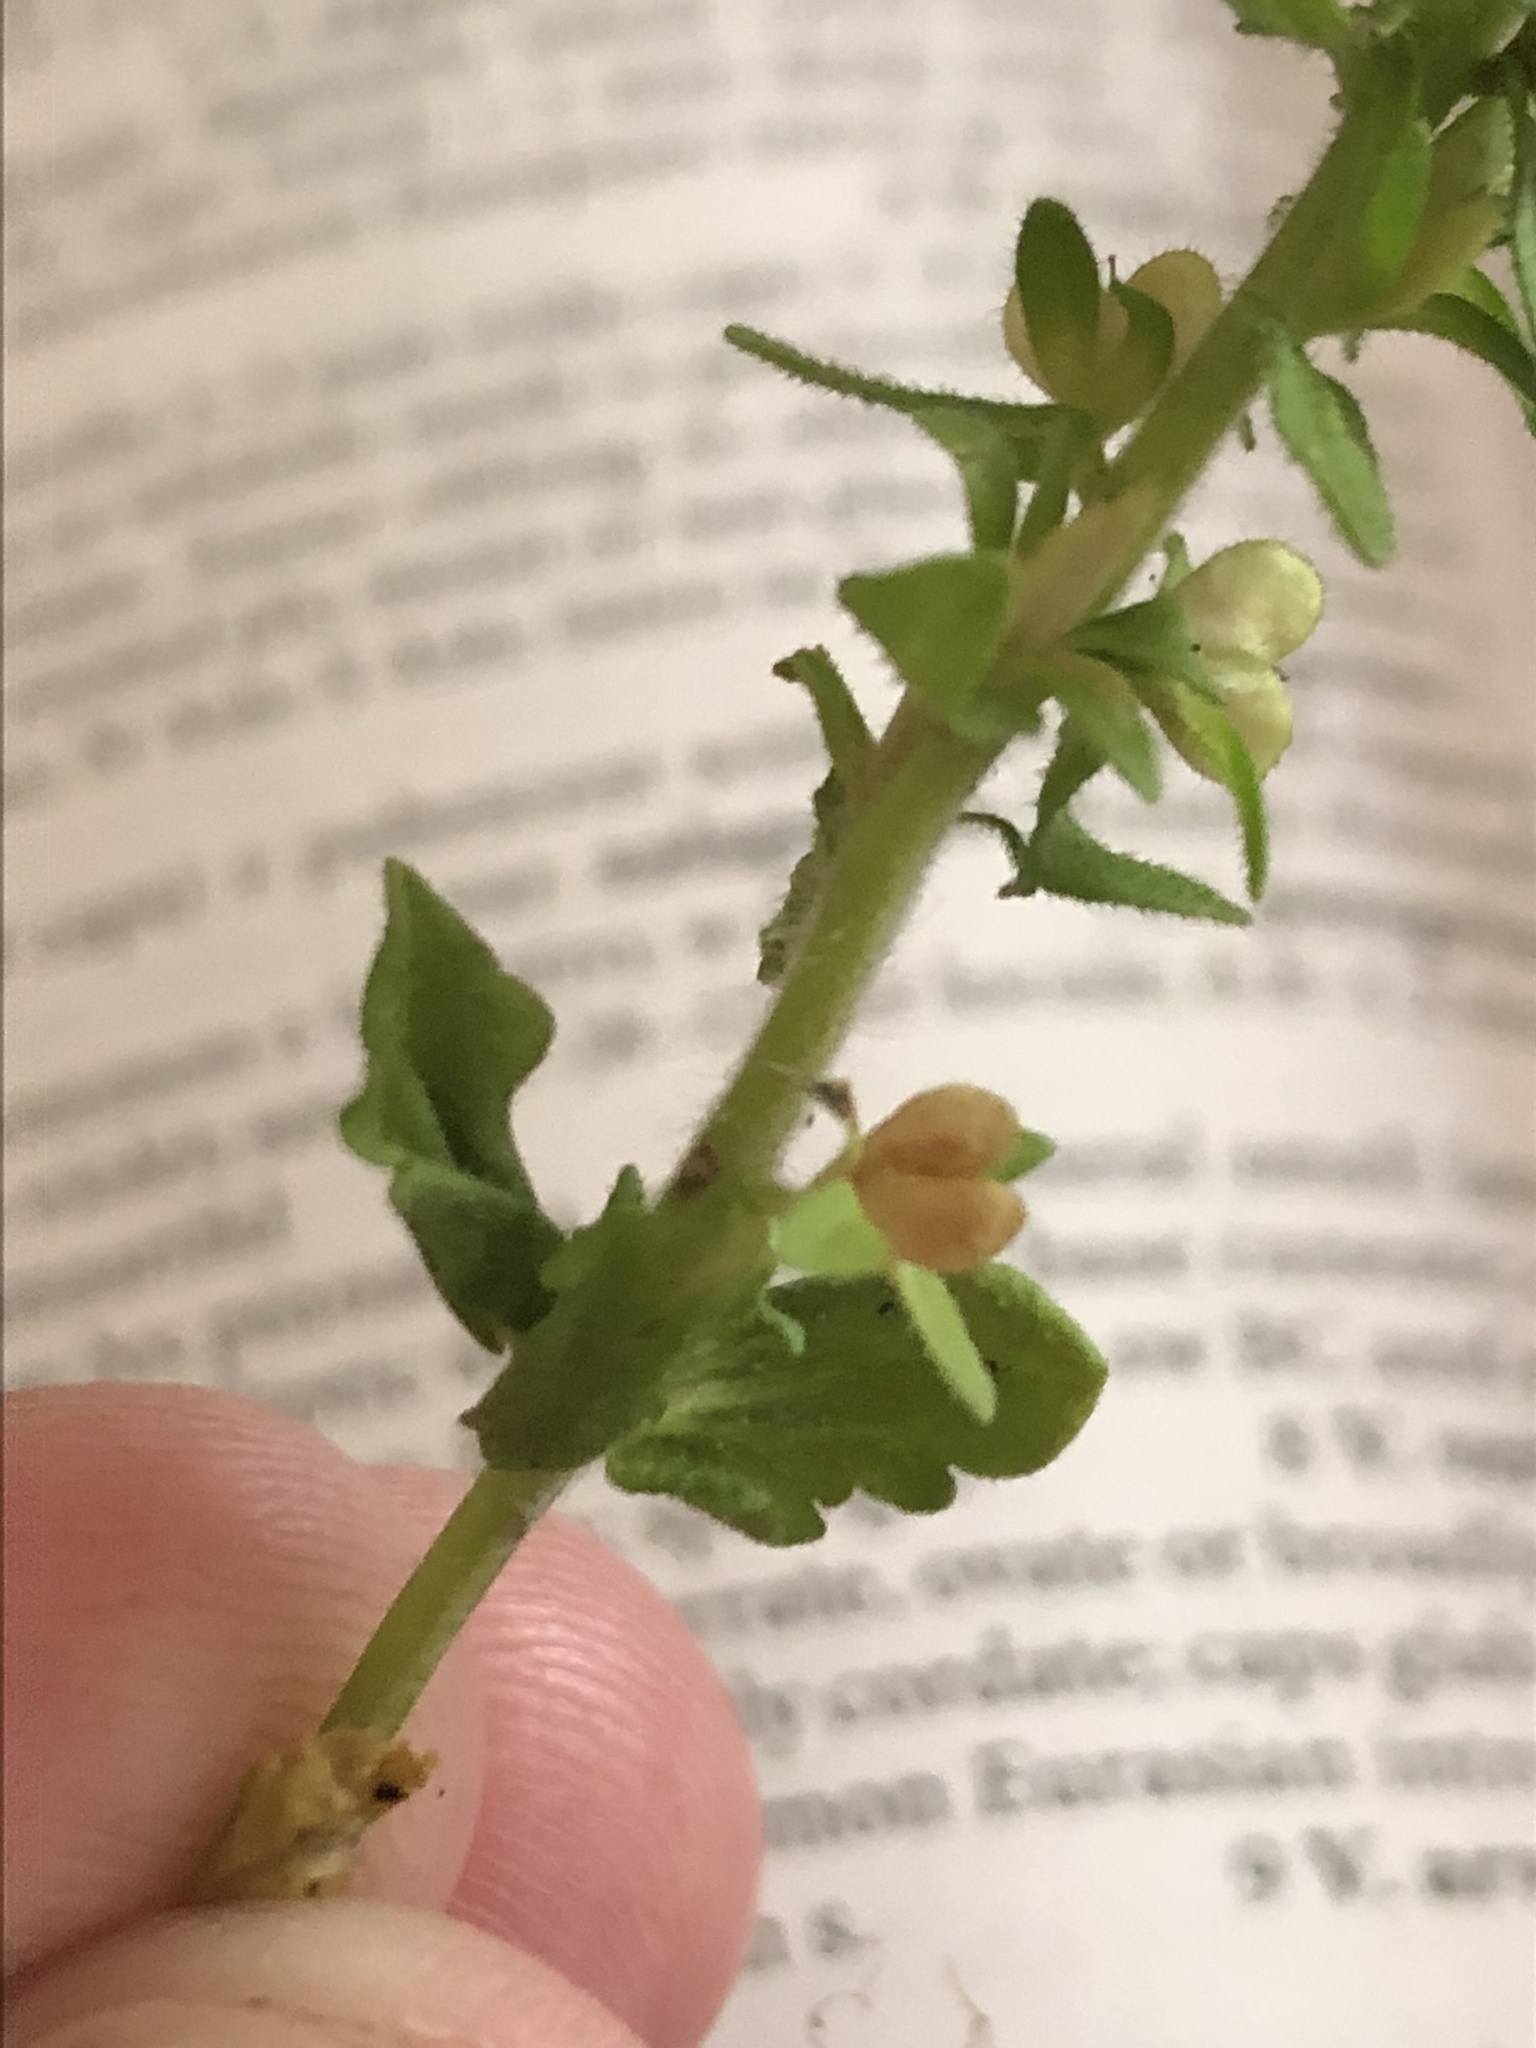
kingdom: Plantae
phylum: Tracheophyta
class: Magnoliopsida
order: Lamiales
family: Plantaginaceae
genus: Veronica
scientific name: Veronica arvensis
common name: Corn speedwell
